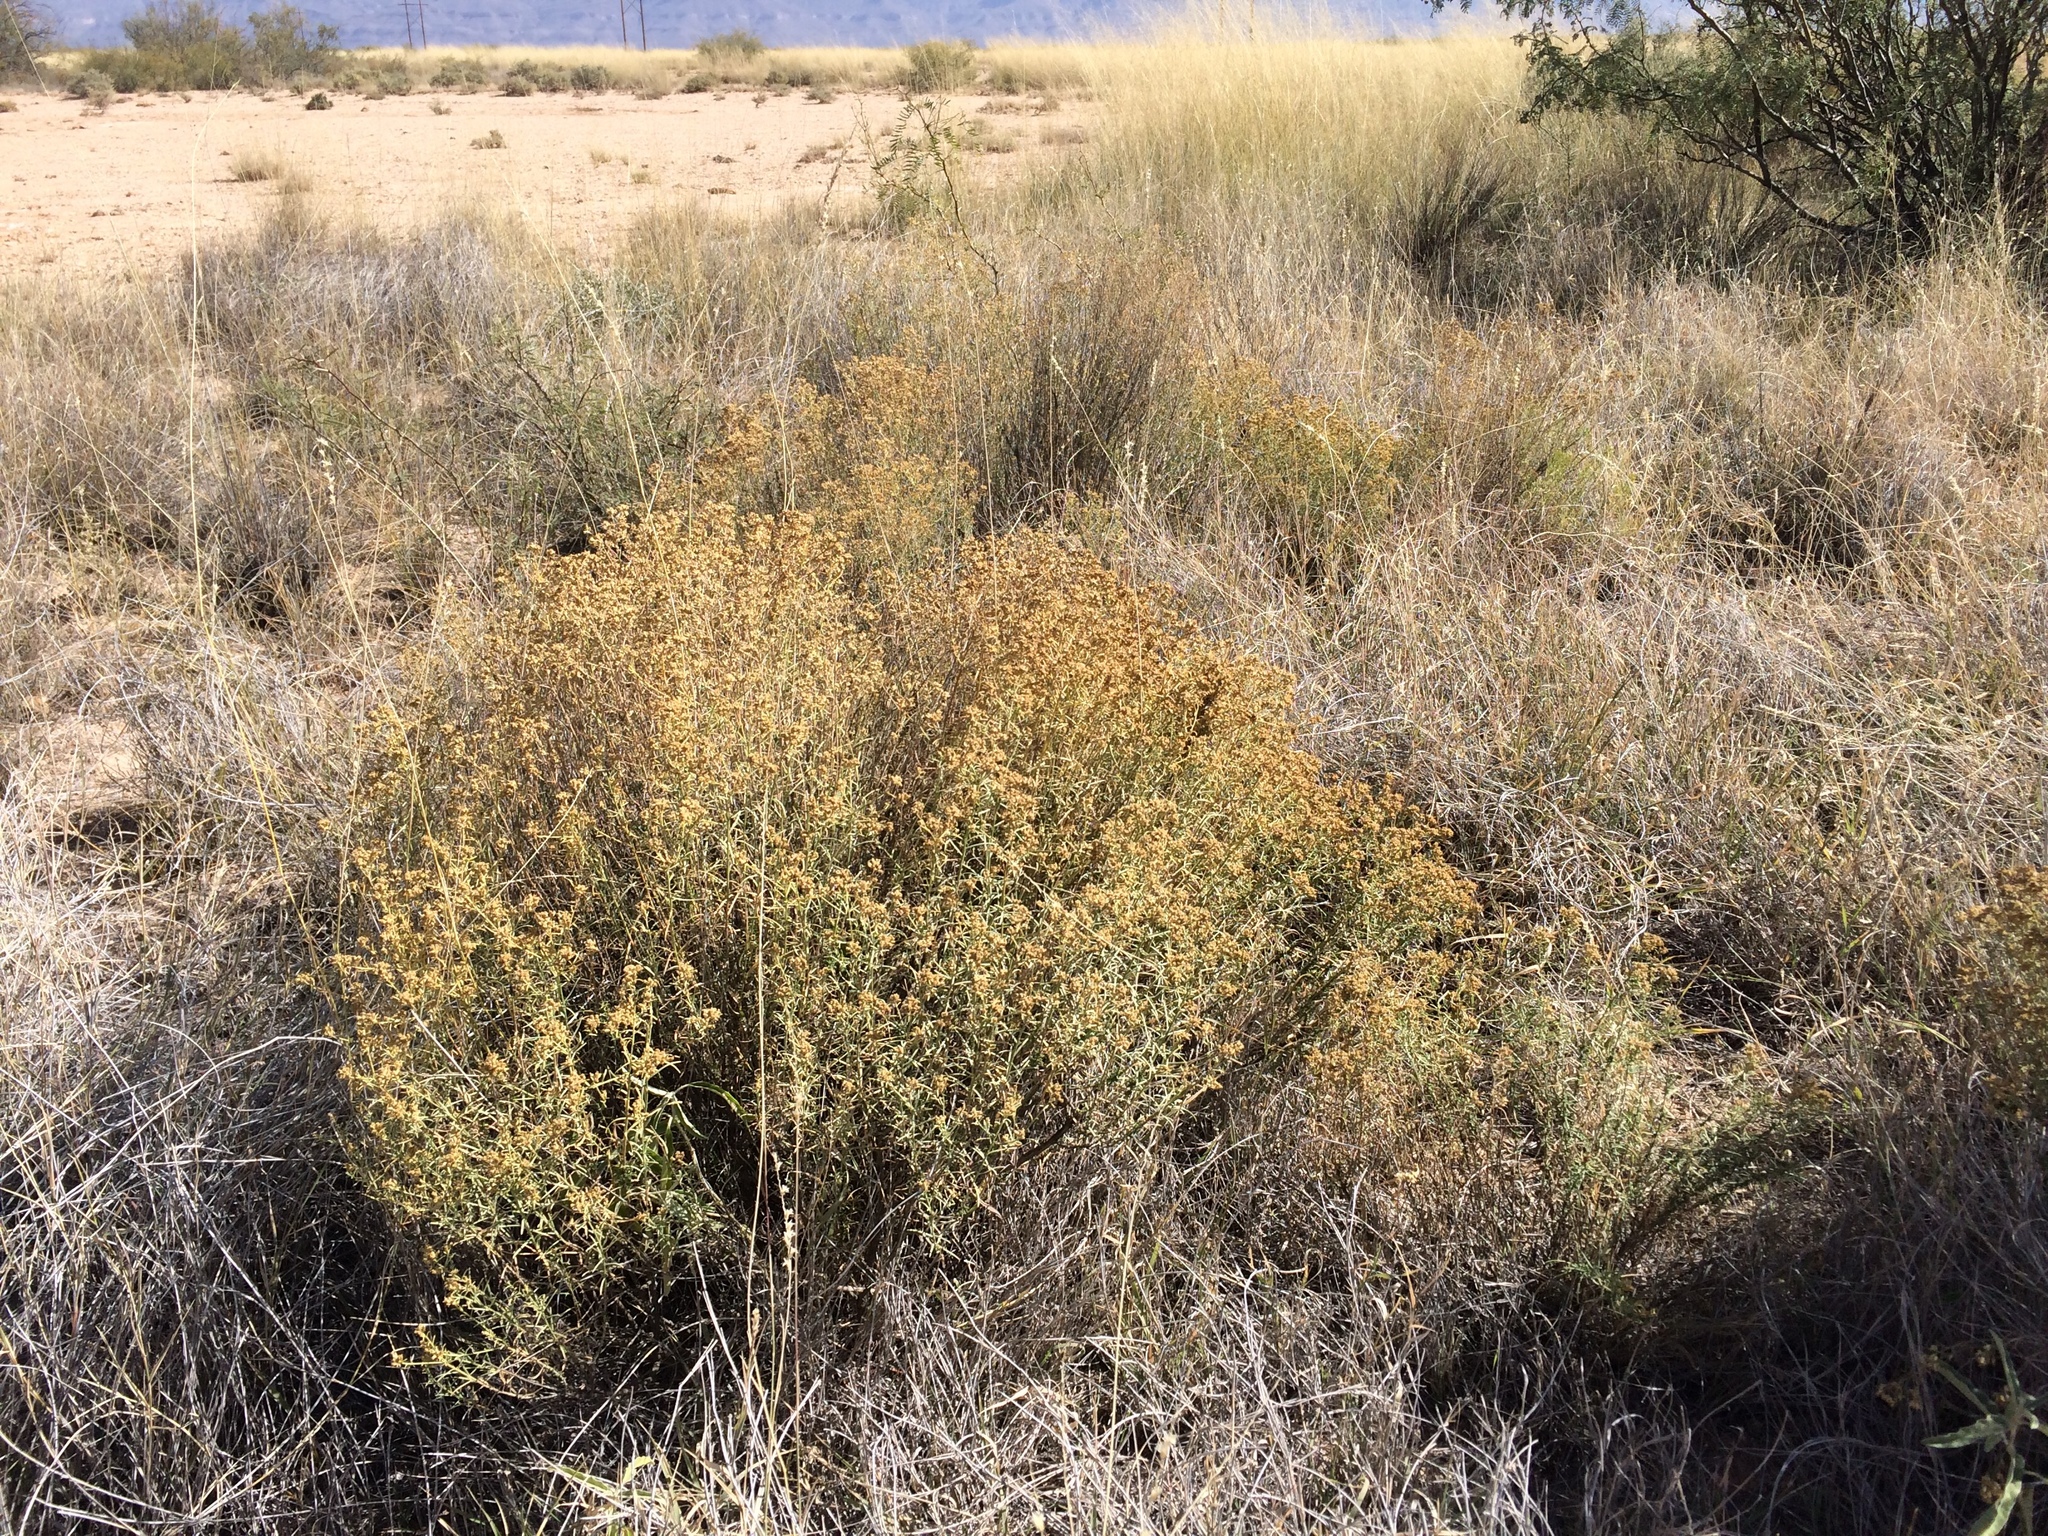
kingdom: Plantae
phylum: Tracheophyta
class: Magnoliopsida
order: Asterales
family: Asteraceae
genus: Gutierrezia
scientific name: Gutierrezia sarothrae
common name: Broom snakeweed
